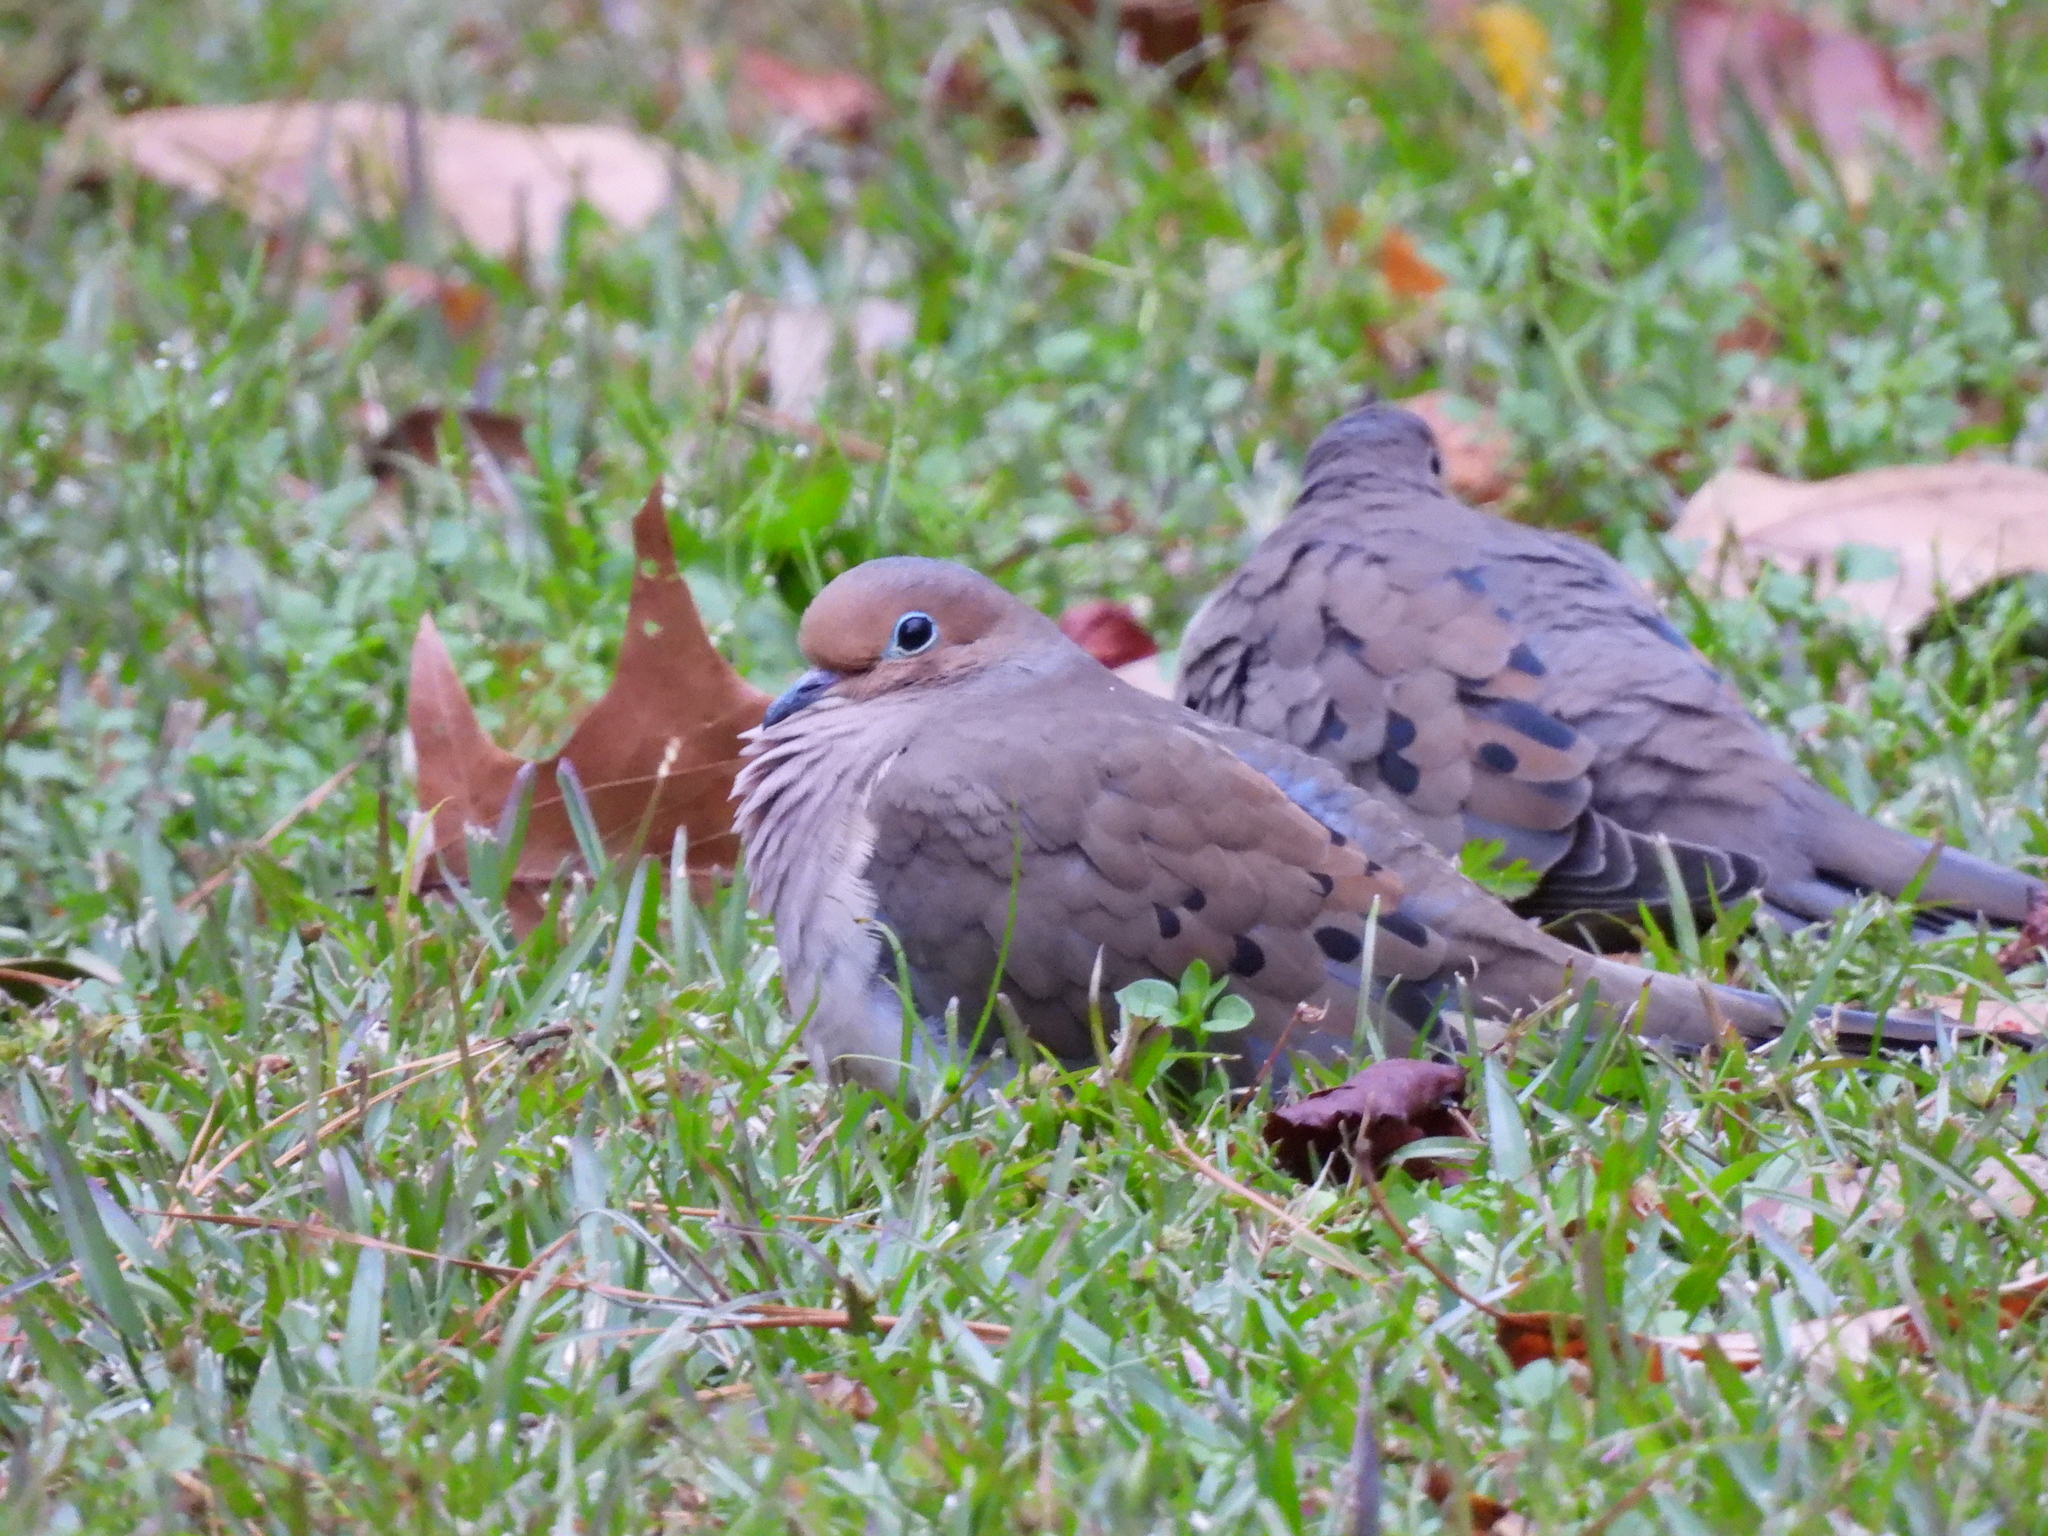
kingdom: Animalia
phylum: Chordata
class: Aves
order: Columbiformes
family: Columbidae
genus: Zenaida
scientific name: Zenaida macroura
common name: Mourning dove
